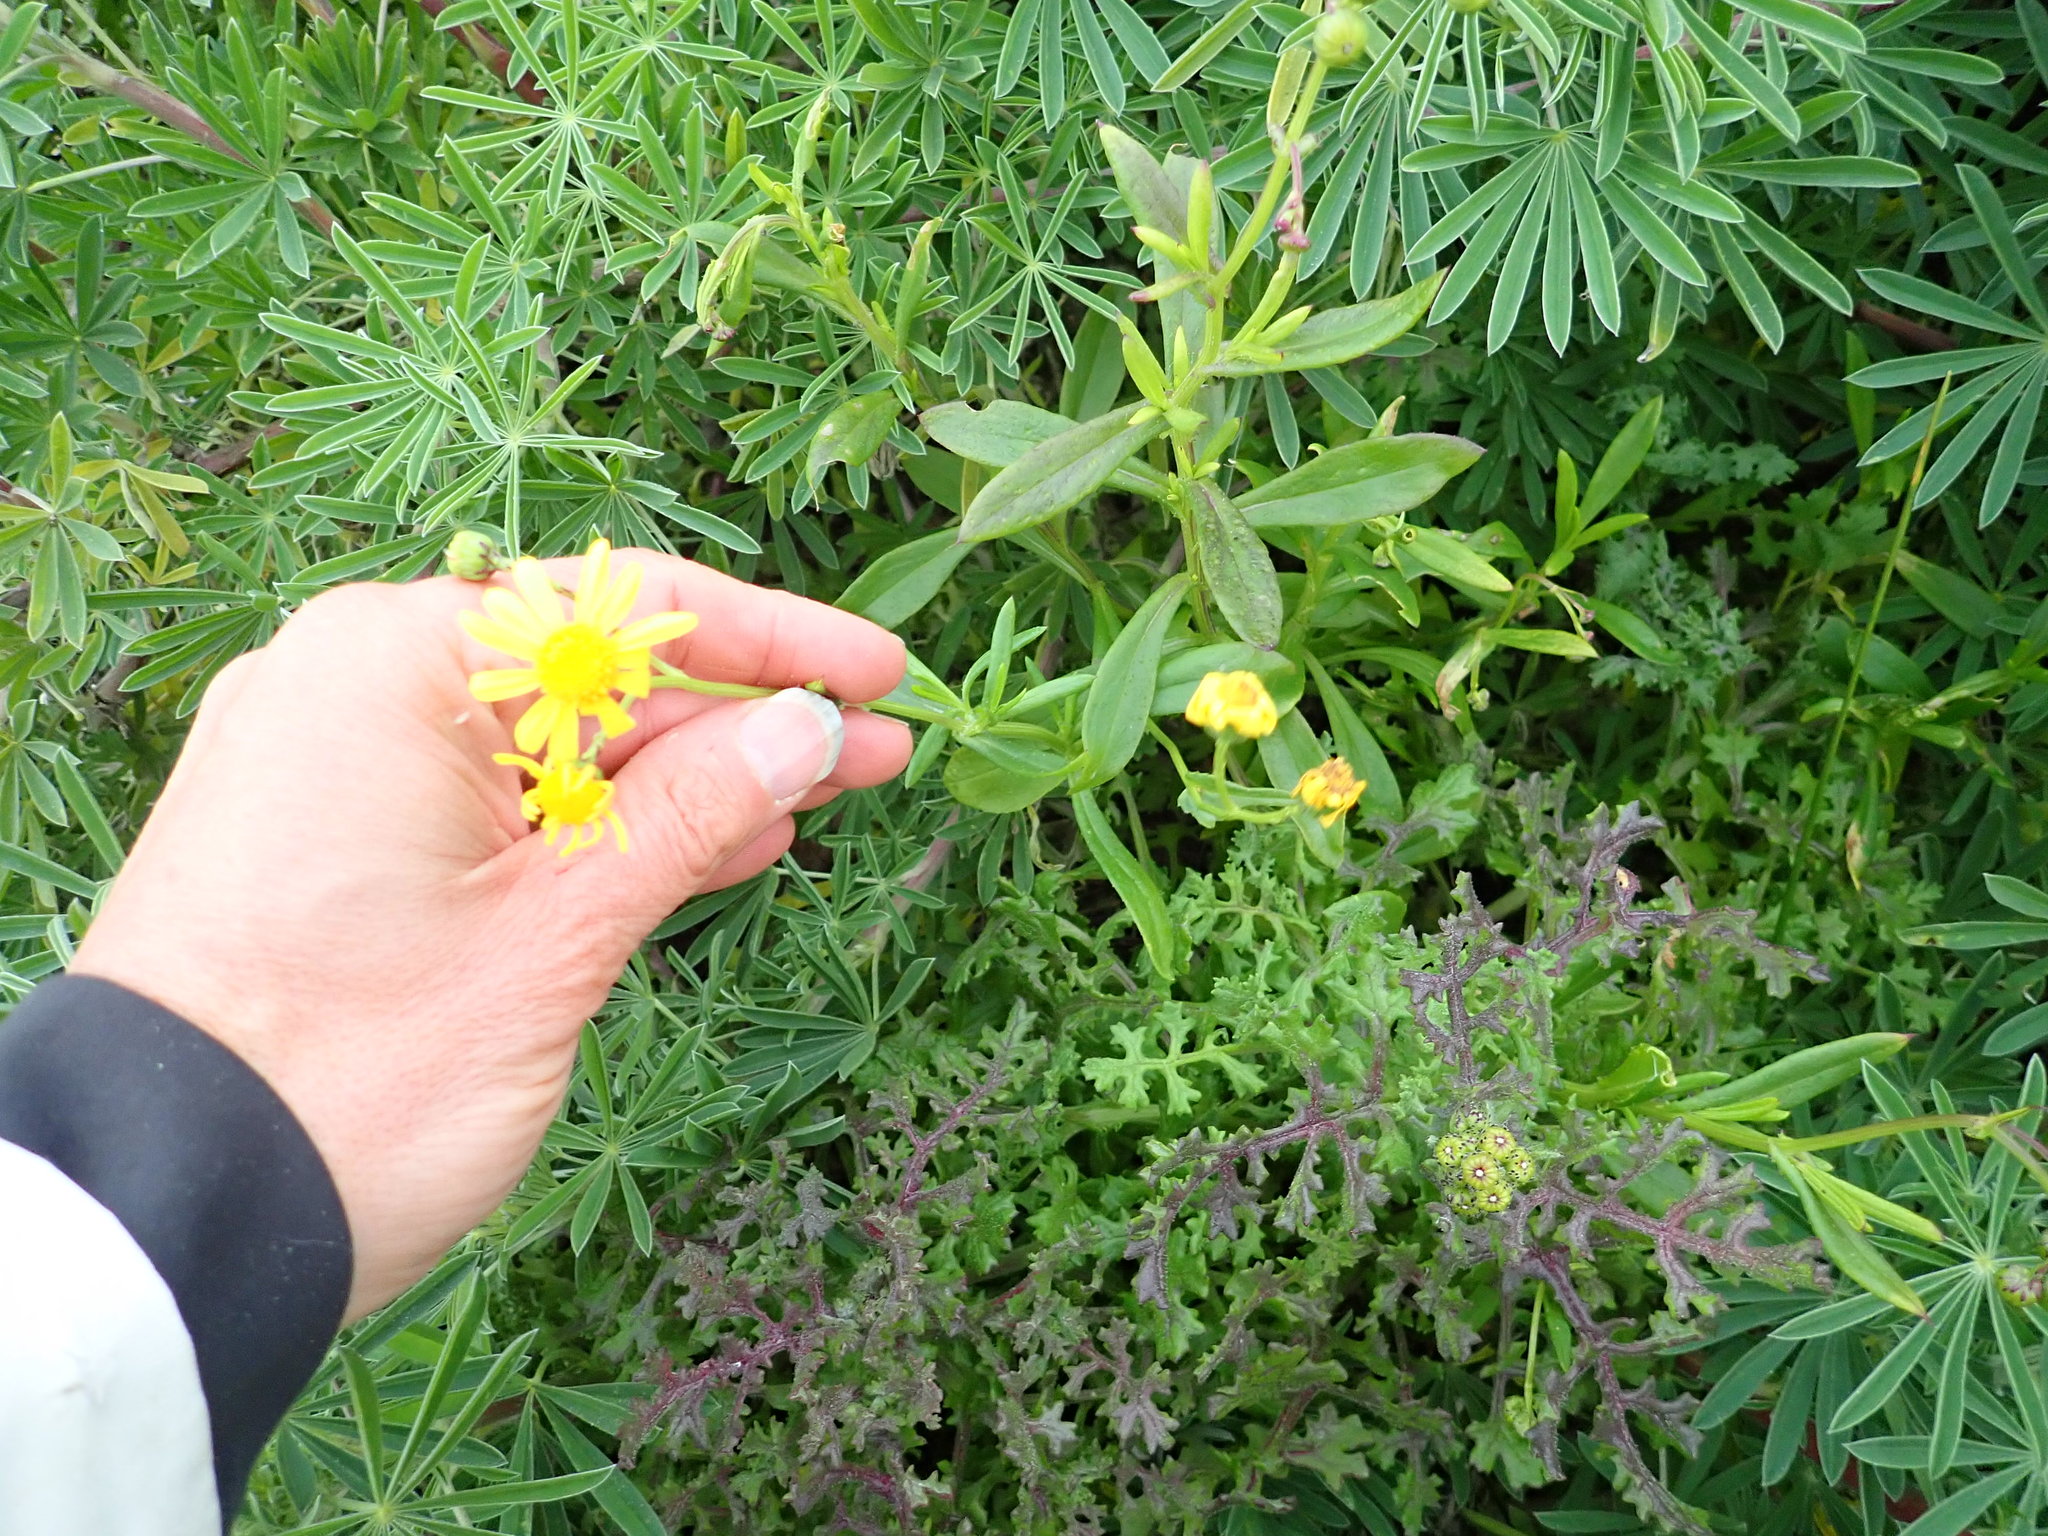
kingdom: Plantae
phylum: Tracheophyta
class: Magnoliopsida
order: Asterales
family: Asteraceae
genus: Senecio
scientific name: Senecio skirrhodon
